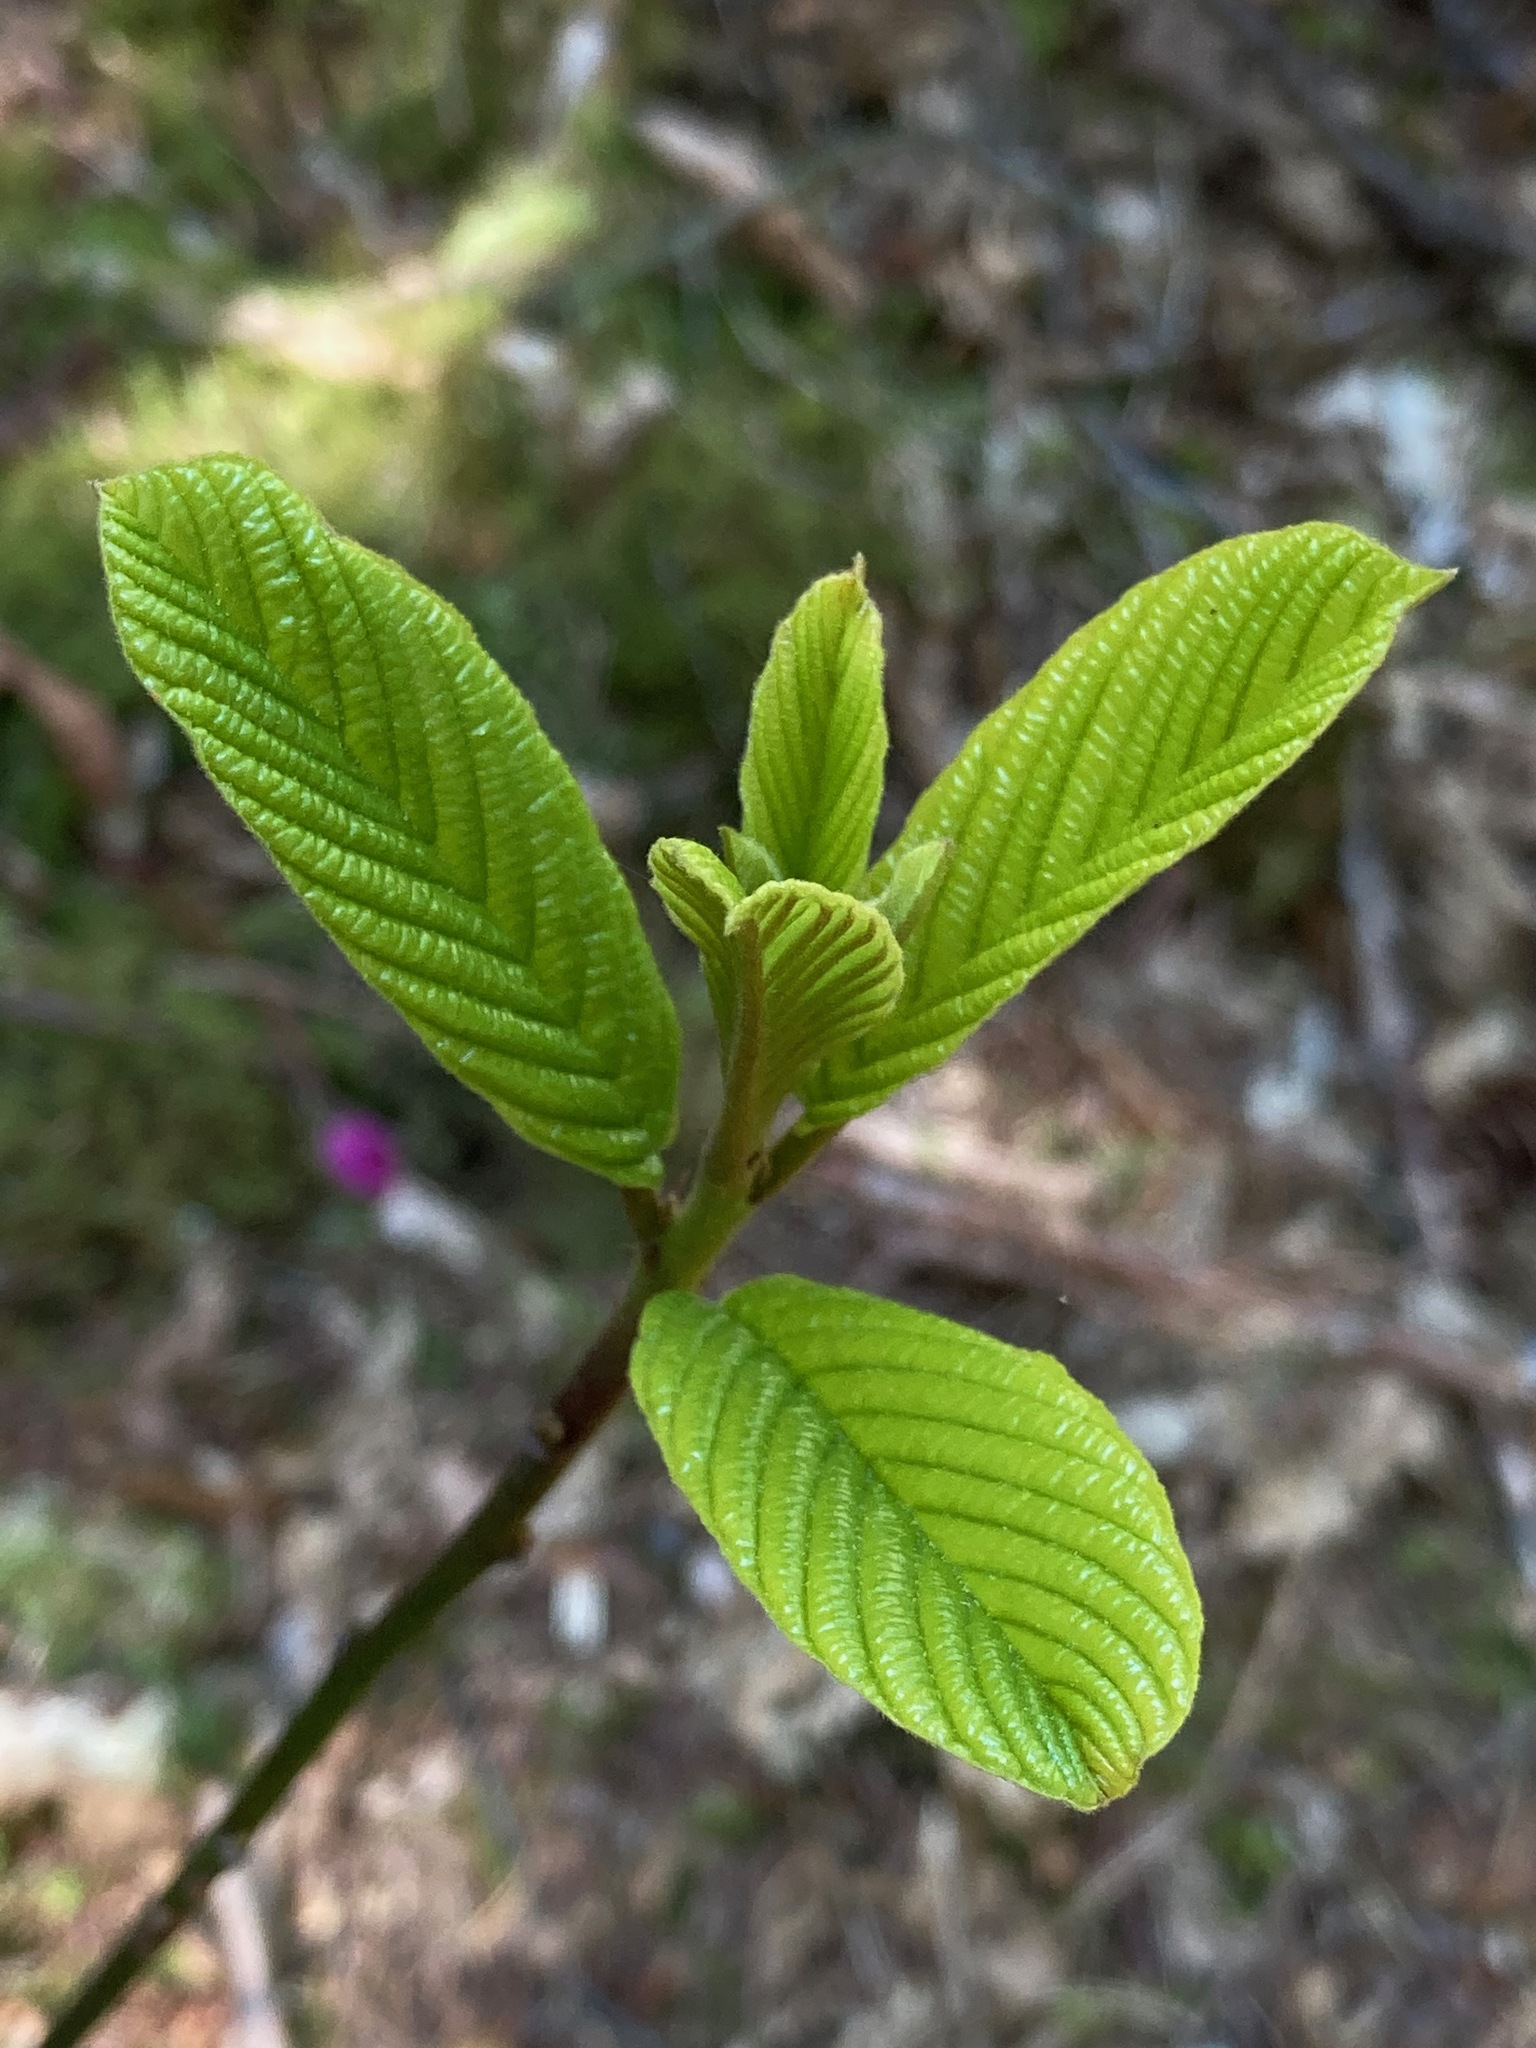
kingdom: Plantae
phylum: Tracheophyta
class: Magnoliopsida
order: Rosales
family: Rhamnaceae
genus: Frangula
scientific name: Frangula purshiana
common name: Cascara buckthorn
